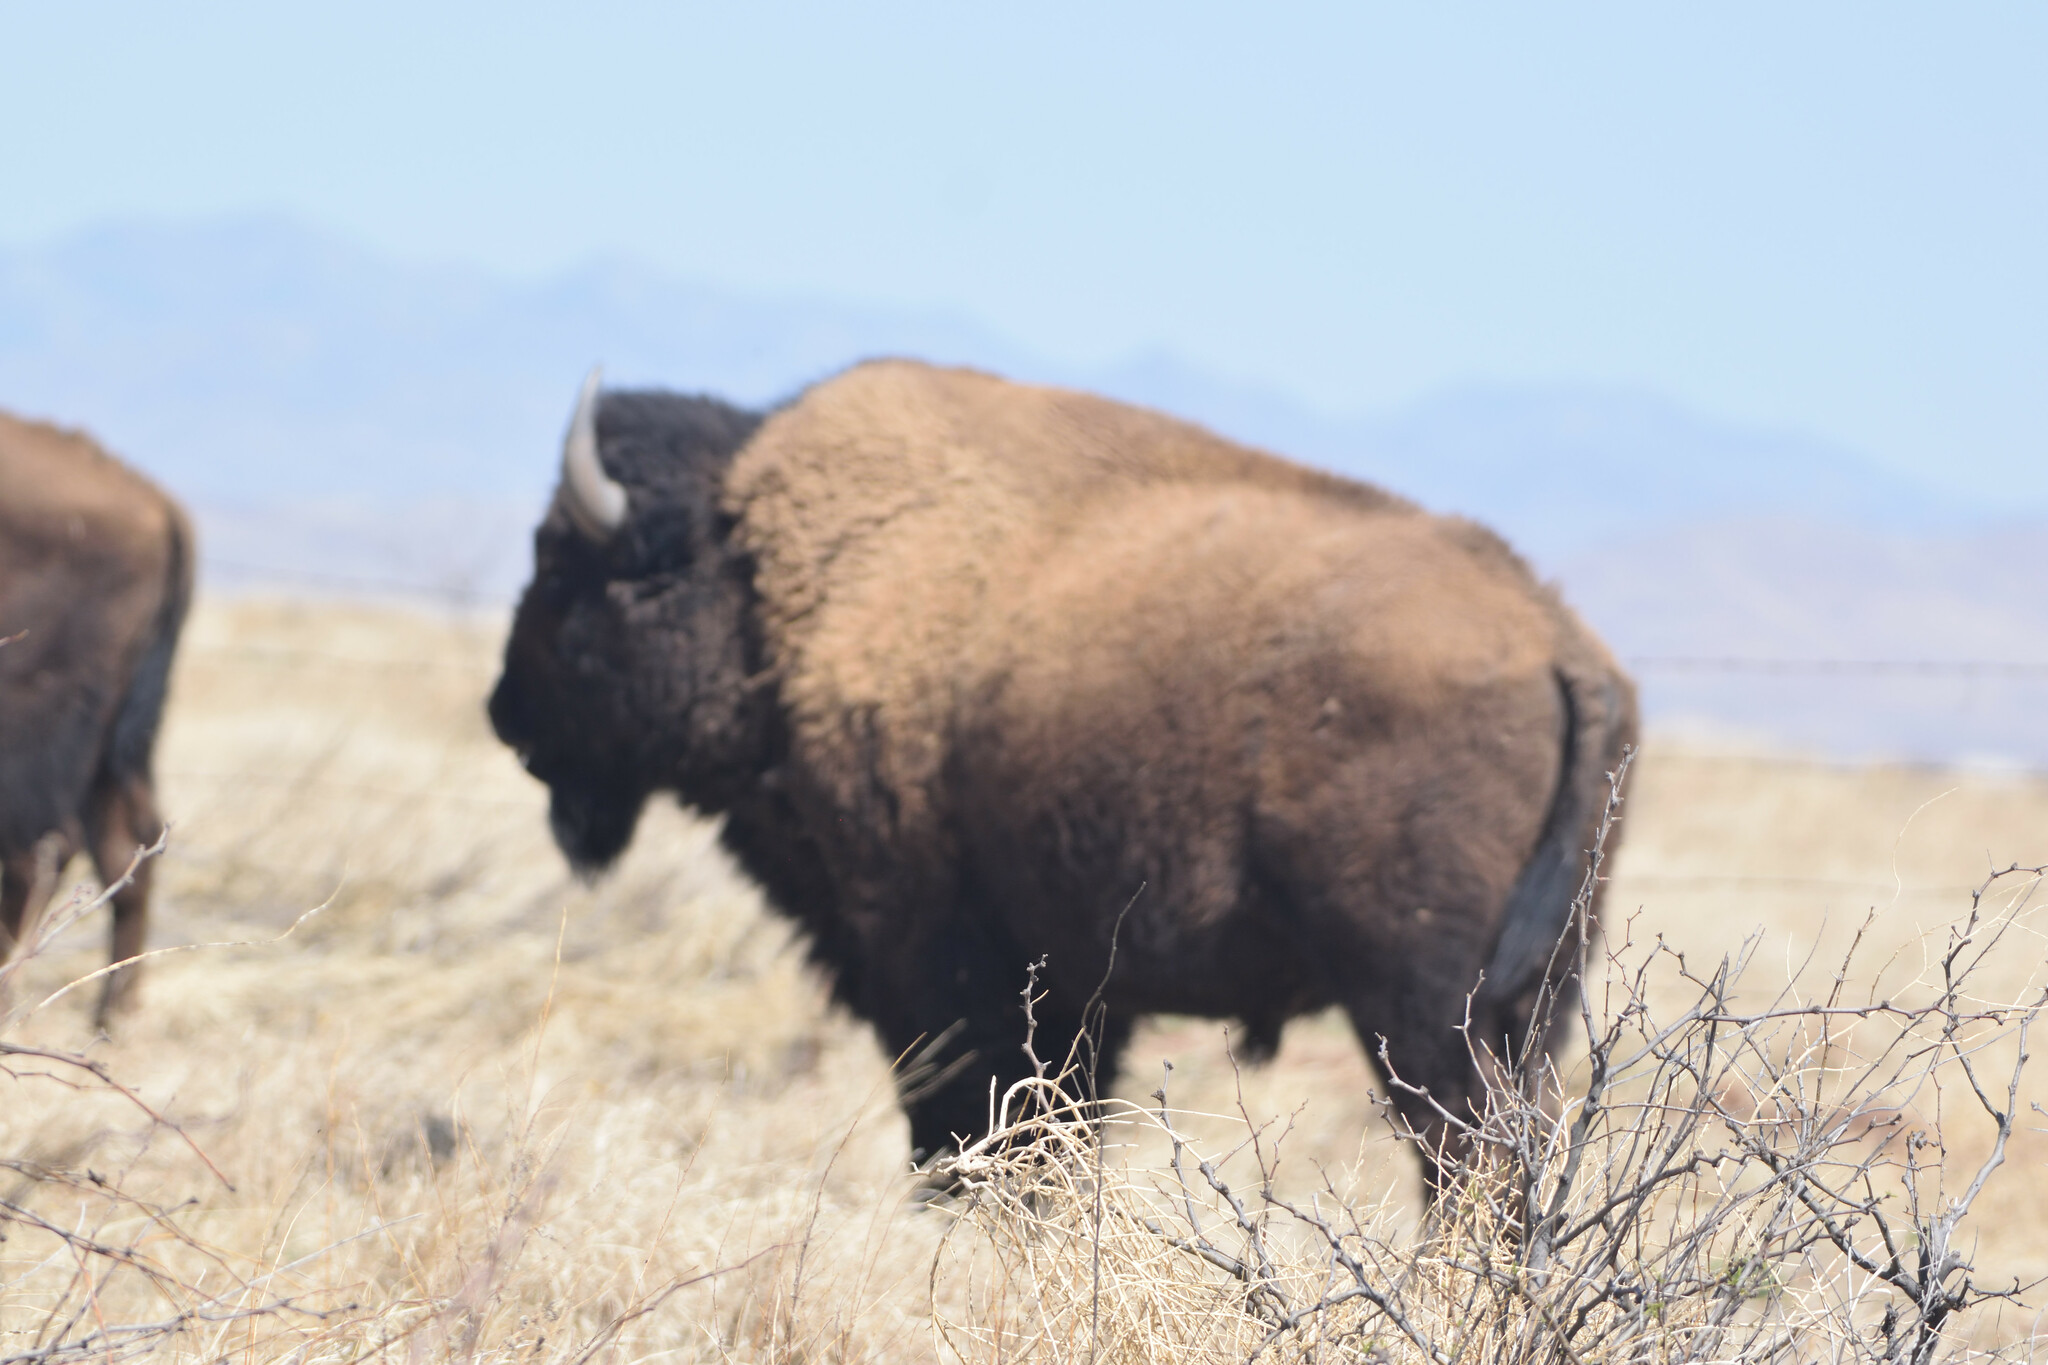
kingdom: Animalia
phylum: Chordata
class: Mammalia
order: Artiodactyla
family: Bovidae
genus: Bison
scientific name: Bison bison
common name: American bison
